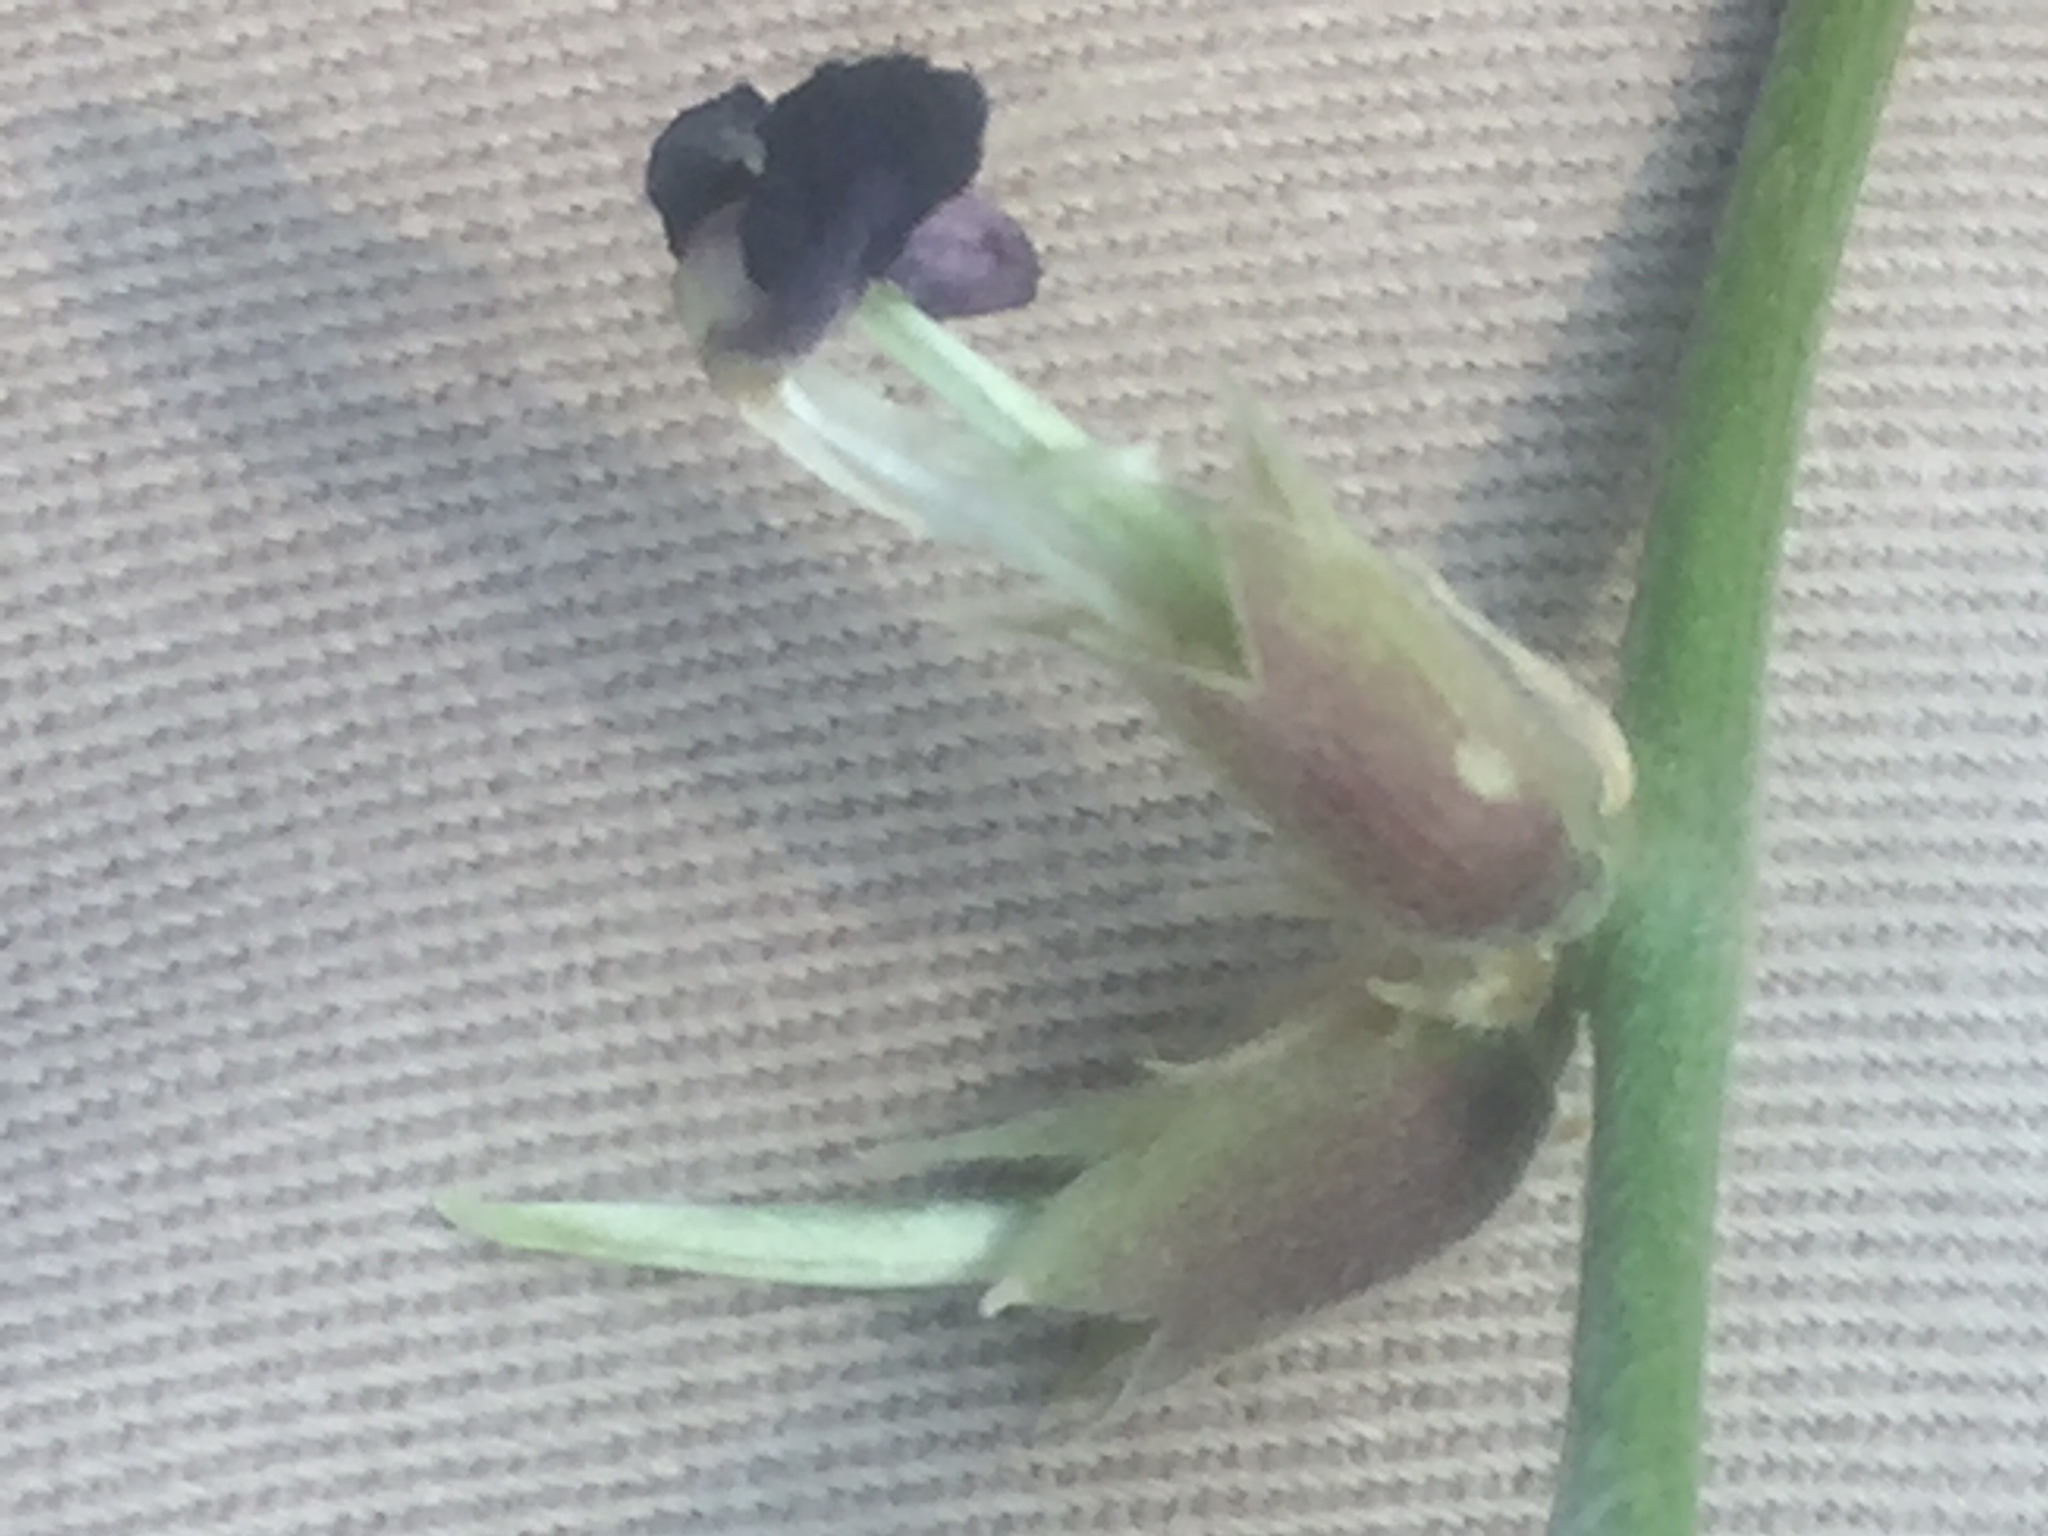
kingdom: Plantae
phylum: Tracheophyta
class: Magnoliopsida
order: Fabales
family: Fabaceae
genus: Macroptilium
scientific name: Macroptilium atropurpureum
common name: Purple bushbean
